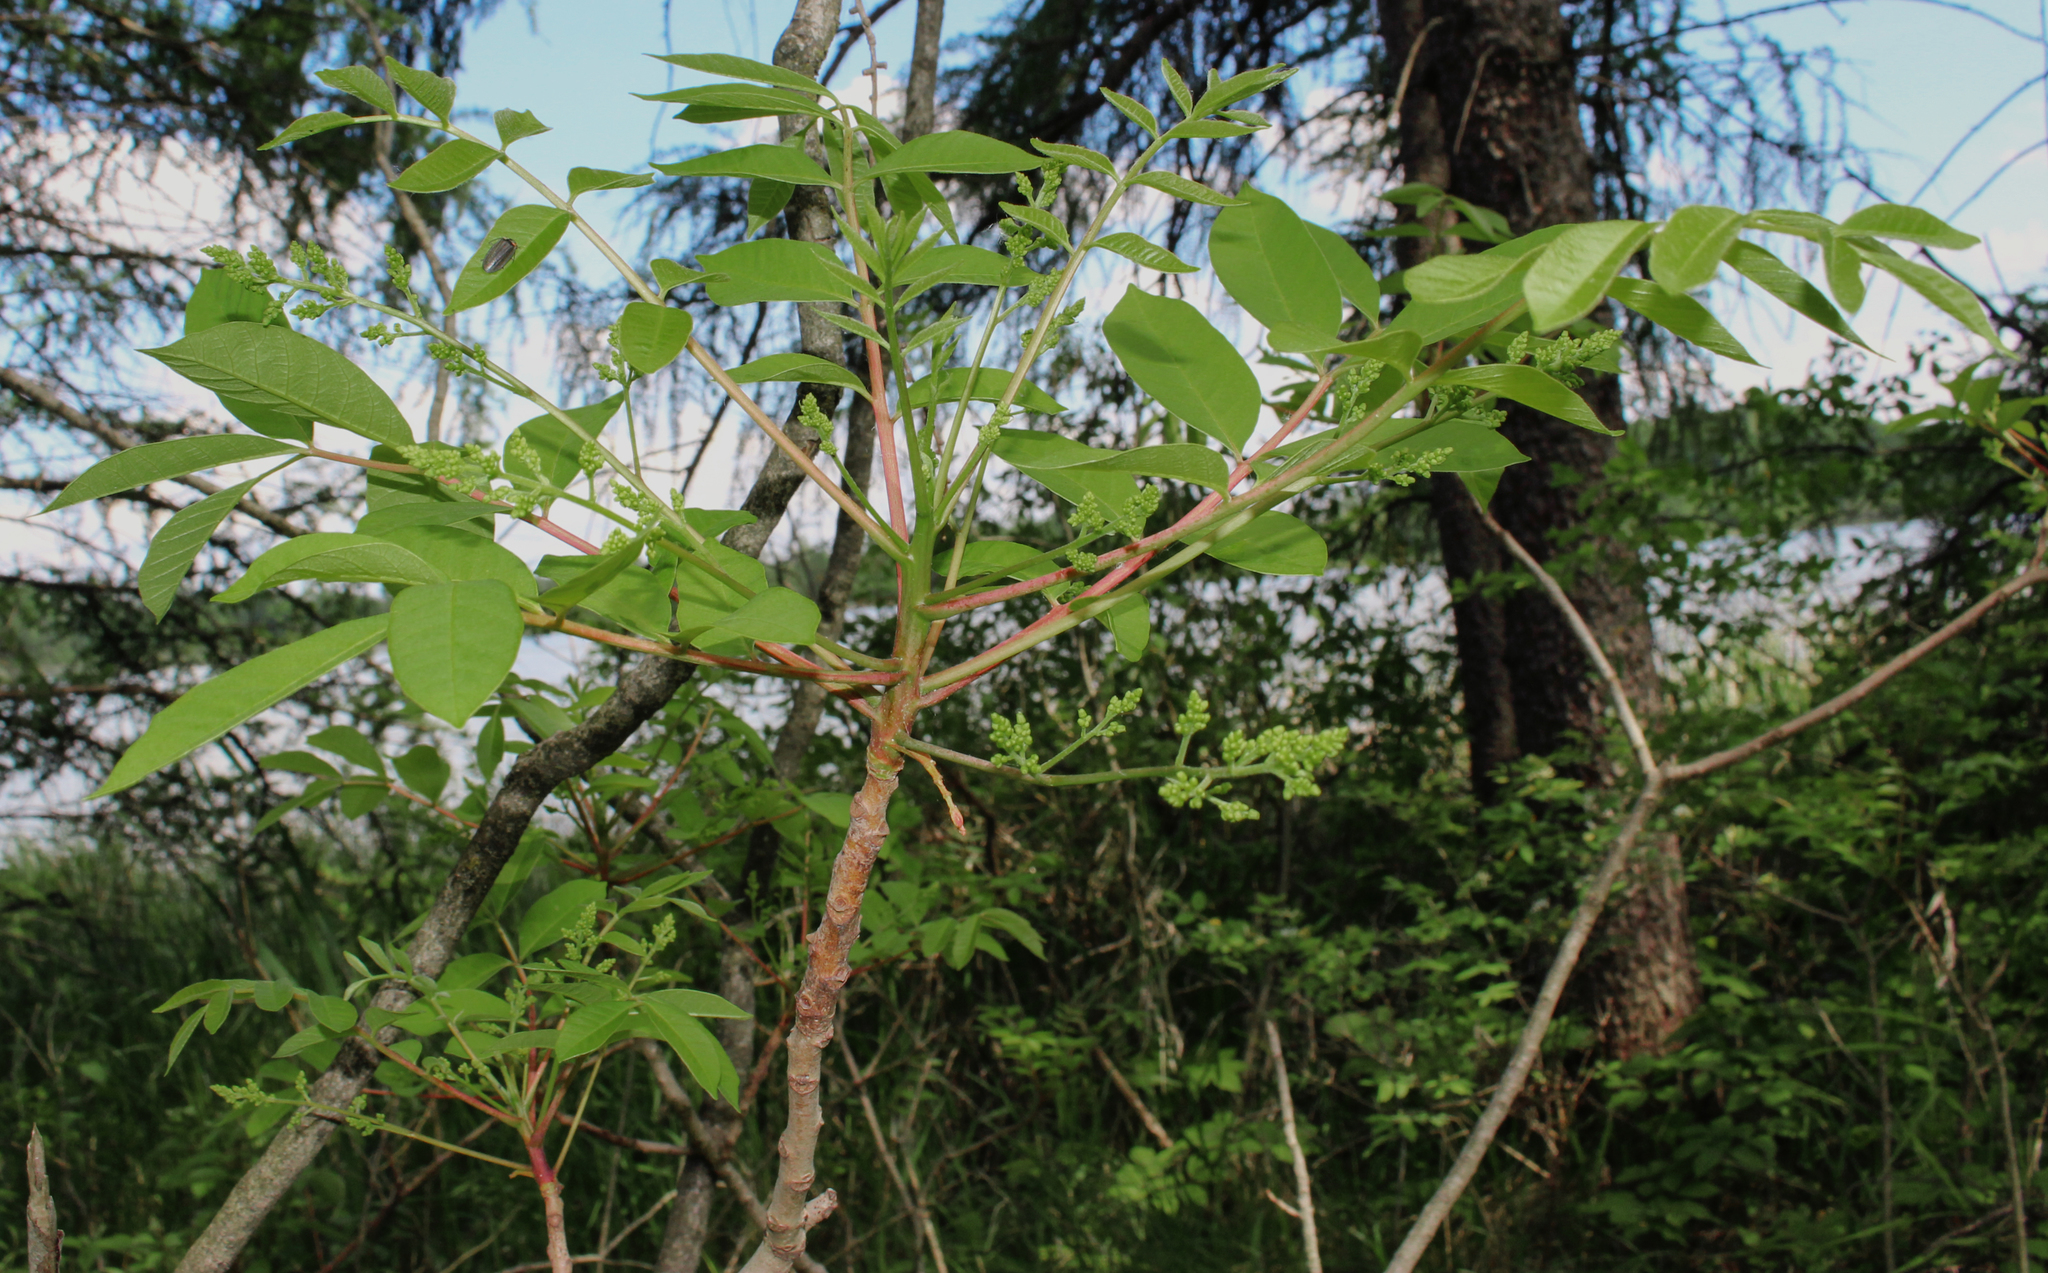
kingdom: Plantae
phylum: Tracheophyta
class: Magnoliopsida
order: Sapindales
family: Anacardiaceae
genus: Toxicodendron
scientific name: Toxicodendron vernix
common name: Poison sumac
